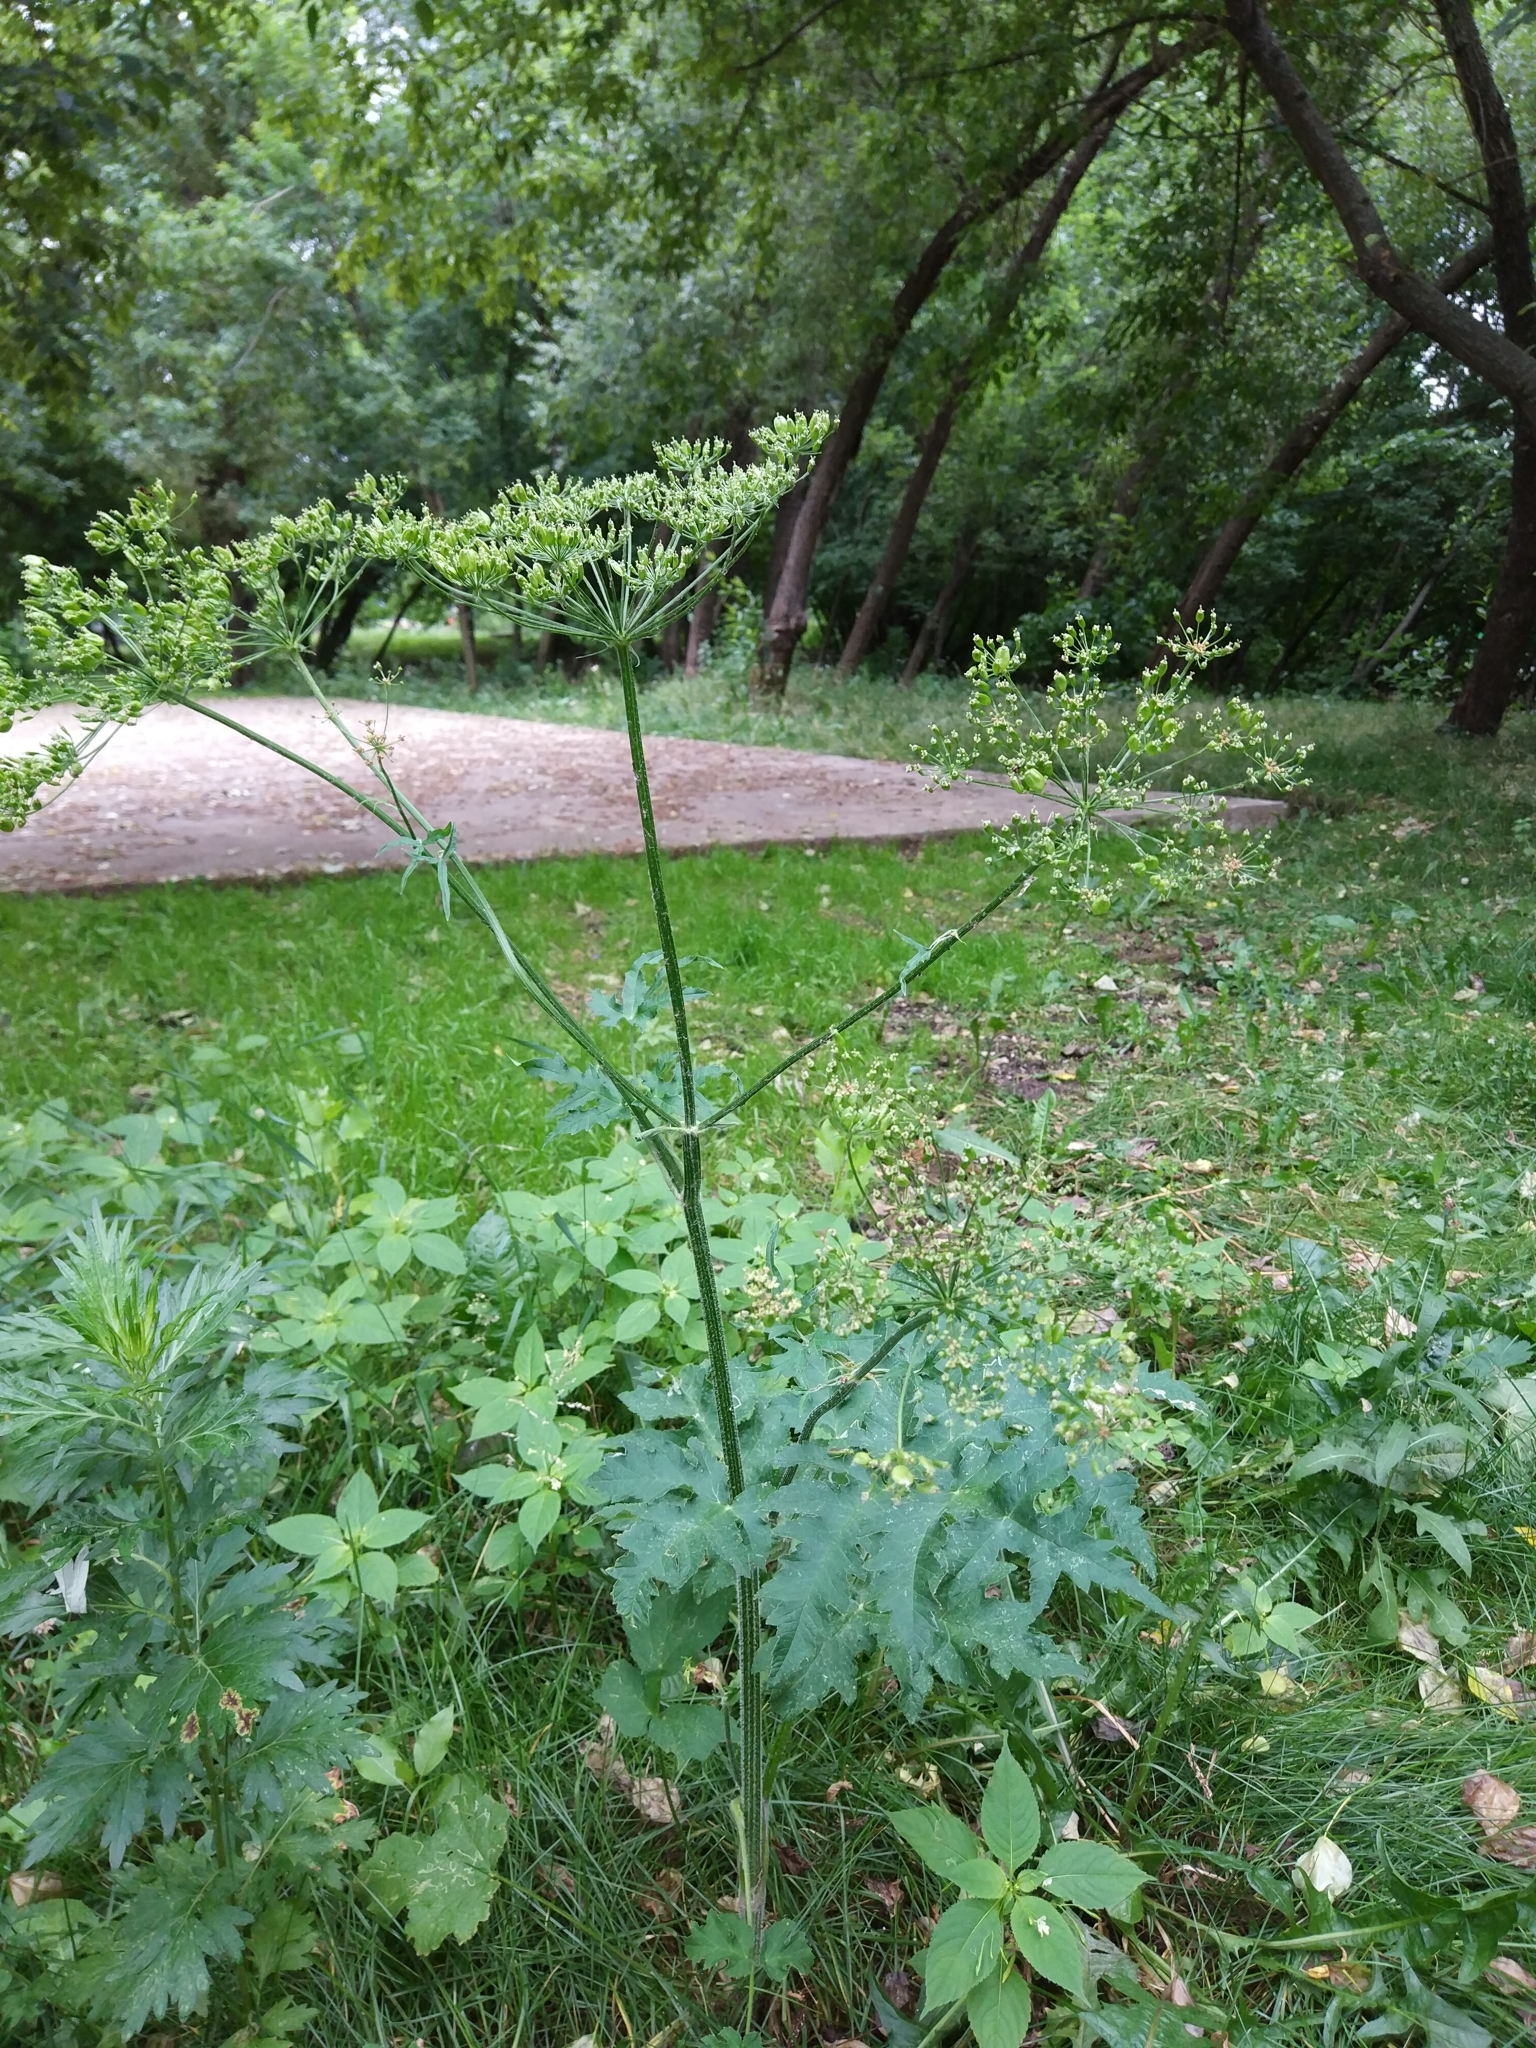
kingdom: Plantae
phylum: Tracheophyta
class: Magnoliopsida
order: Apiales
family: Apiaceae
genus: Heracleum
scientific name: Heracleum sphondylium
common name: Hogweed
